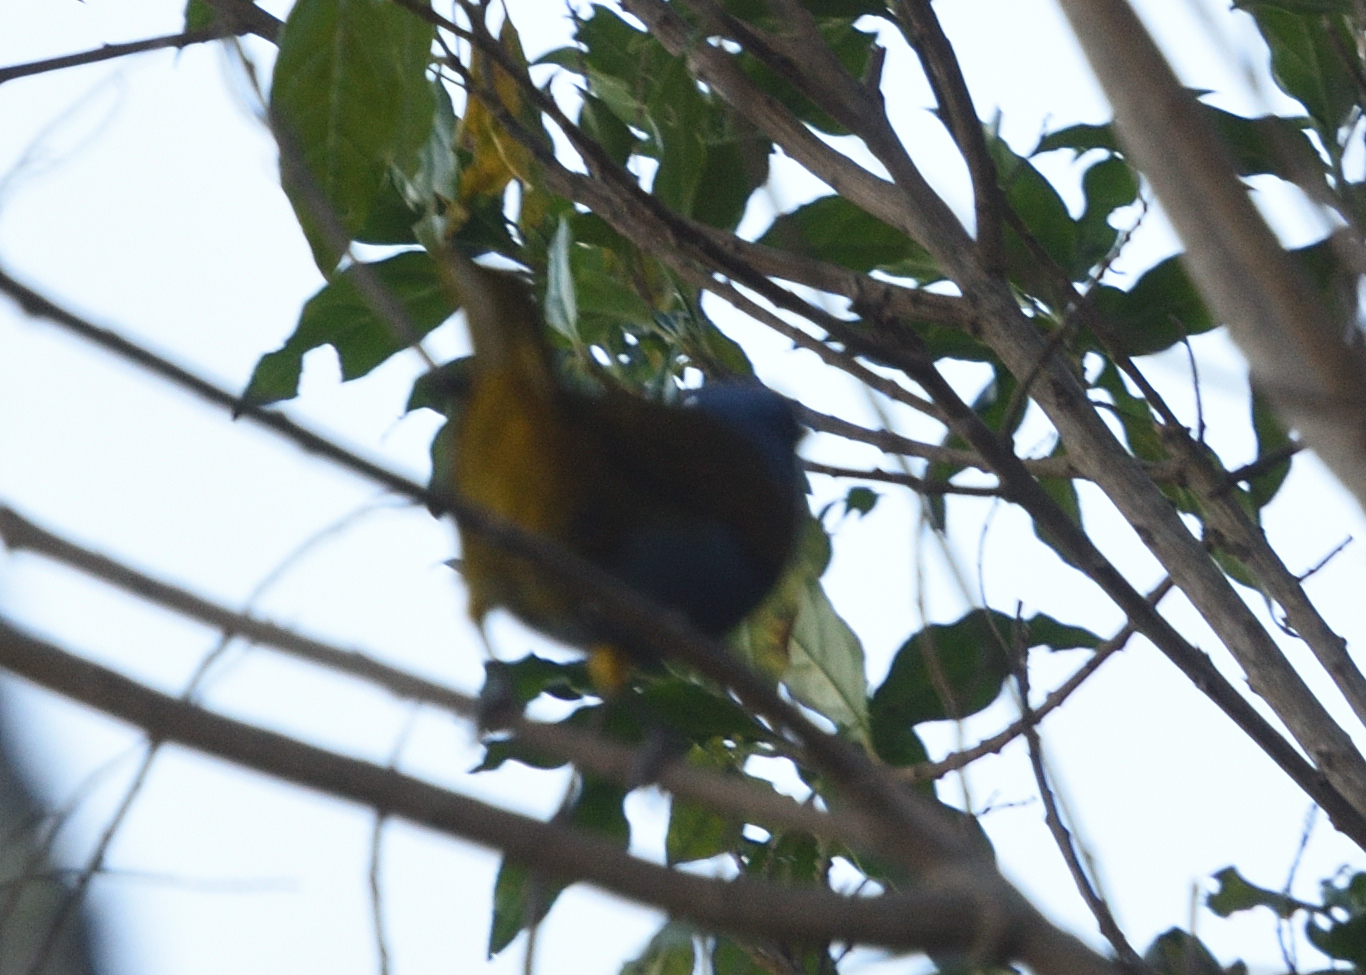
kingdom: Animalia
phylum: Chordata
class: Aves
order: Passeriformes
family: Thraupidae
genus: Sporathraupis
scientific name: Sporathraupis cyanocephala
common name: Blue-capped tanager
